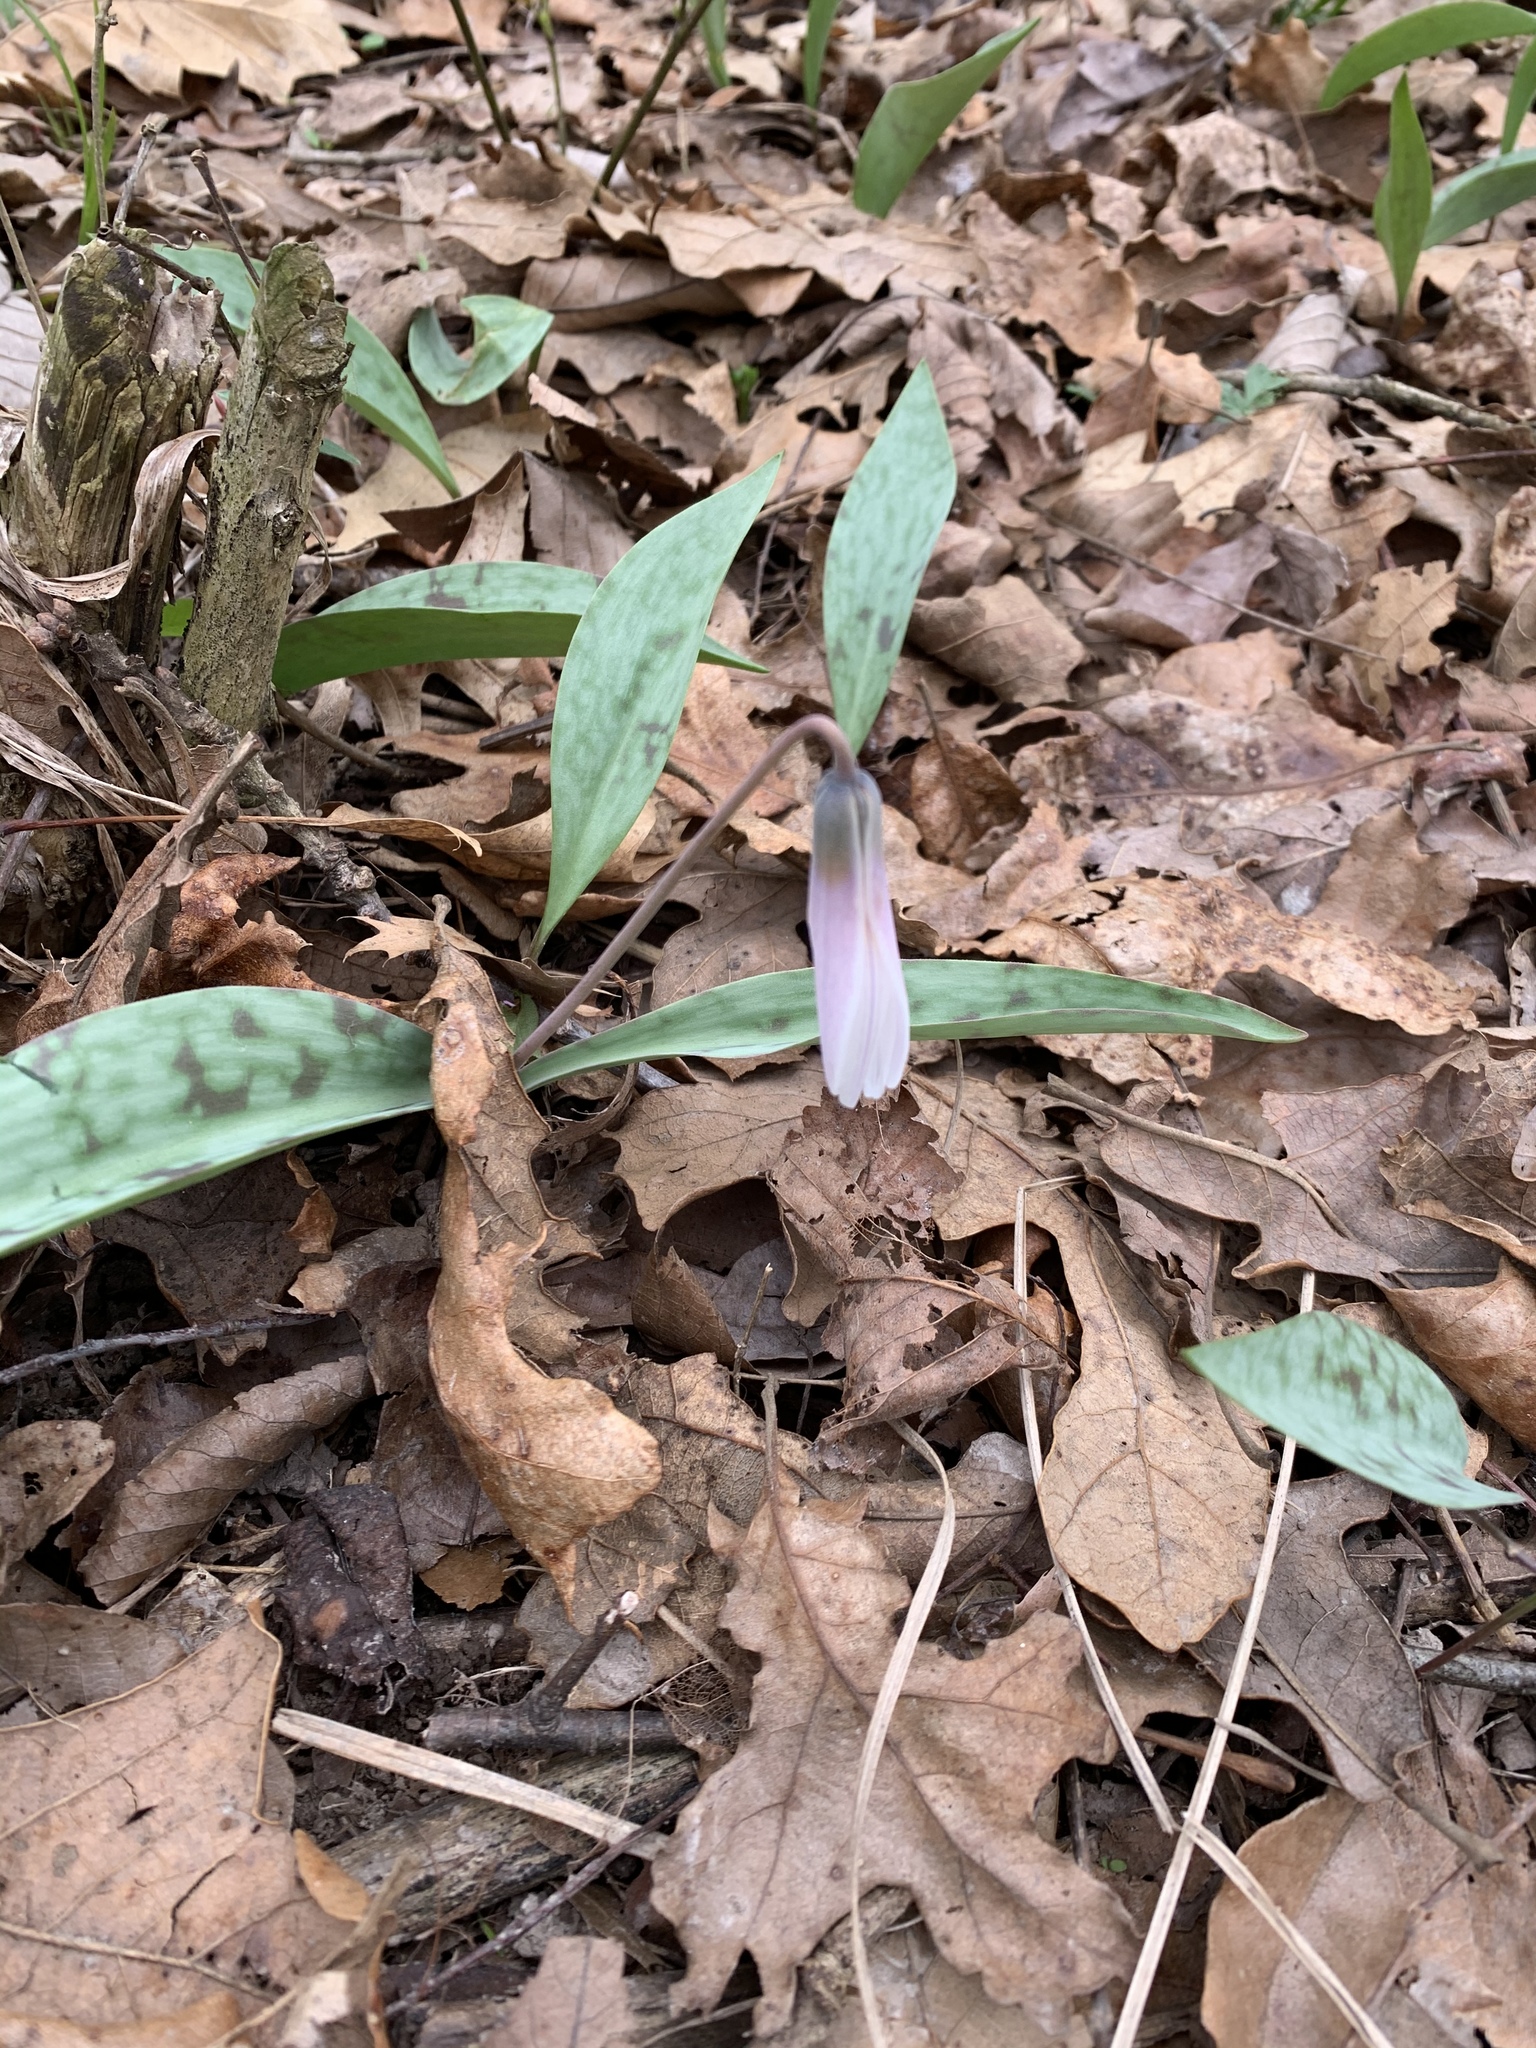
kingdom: Plantae
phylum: Tracheophyta
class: Liliopsida
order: Liliales
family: Liliaceae
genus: Erythronium
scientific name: Erythronium albidum
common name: White trout-lily
